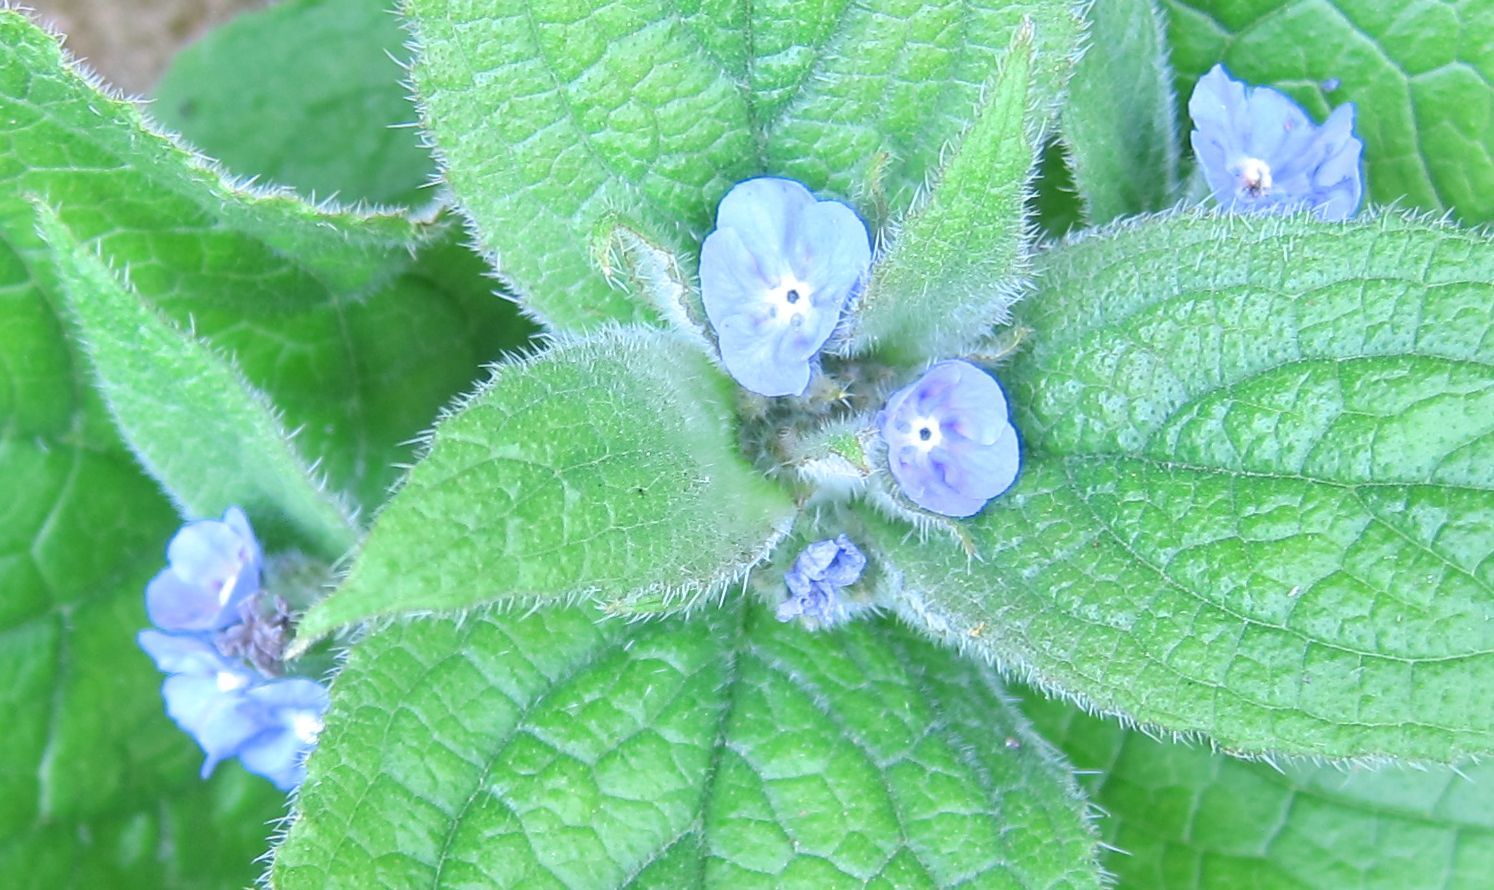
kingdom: Plantae
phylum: Tracheophyta
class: Magnoliopsida
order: Boraginales
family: Boraginaceae
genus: Cynoglossum
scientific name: Cynoglossum amabile
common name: Chinese hound's tongue
